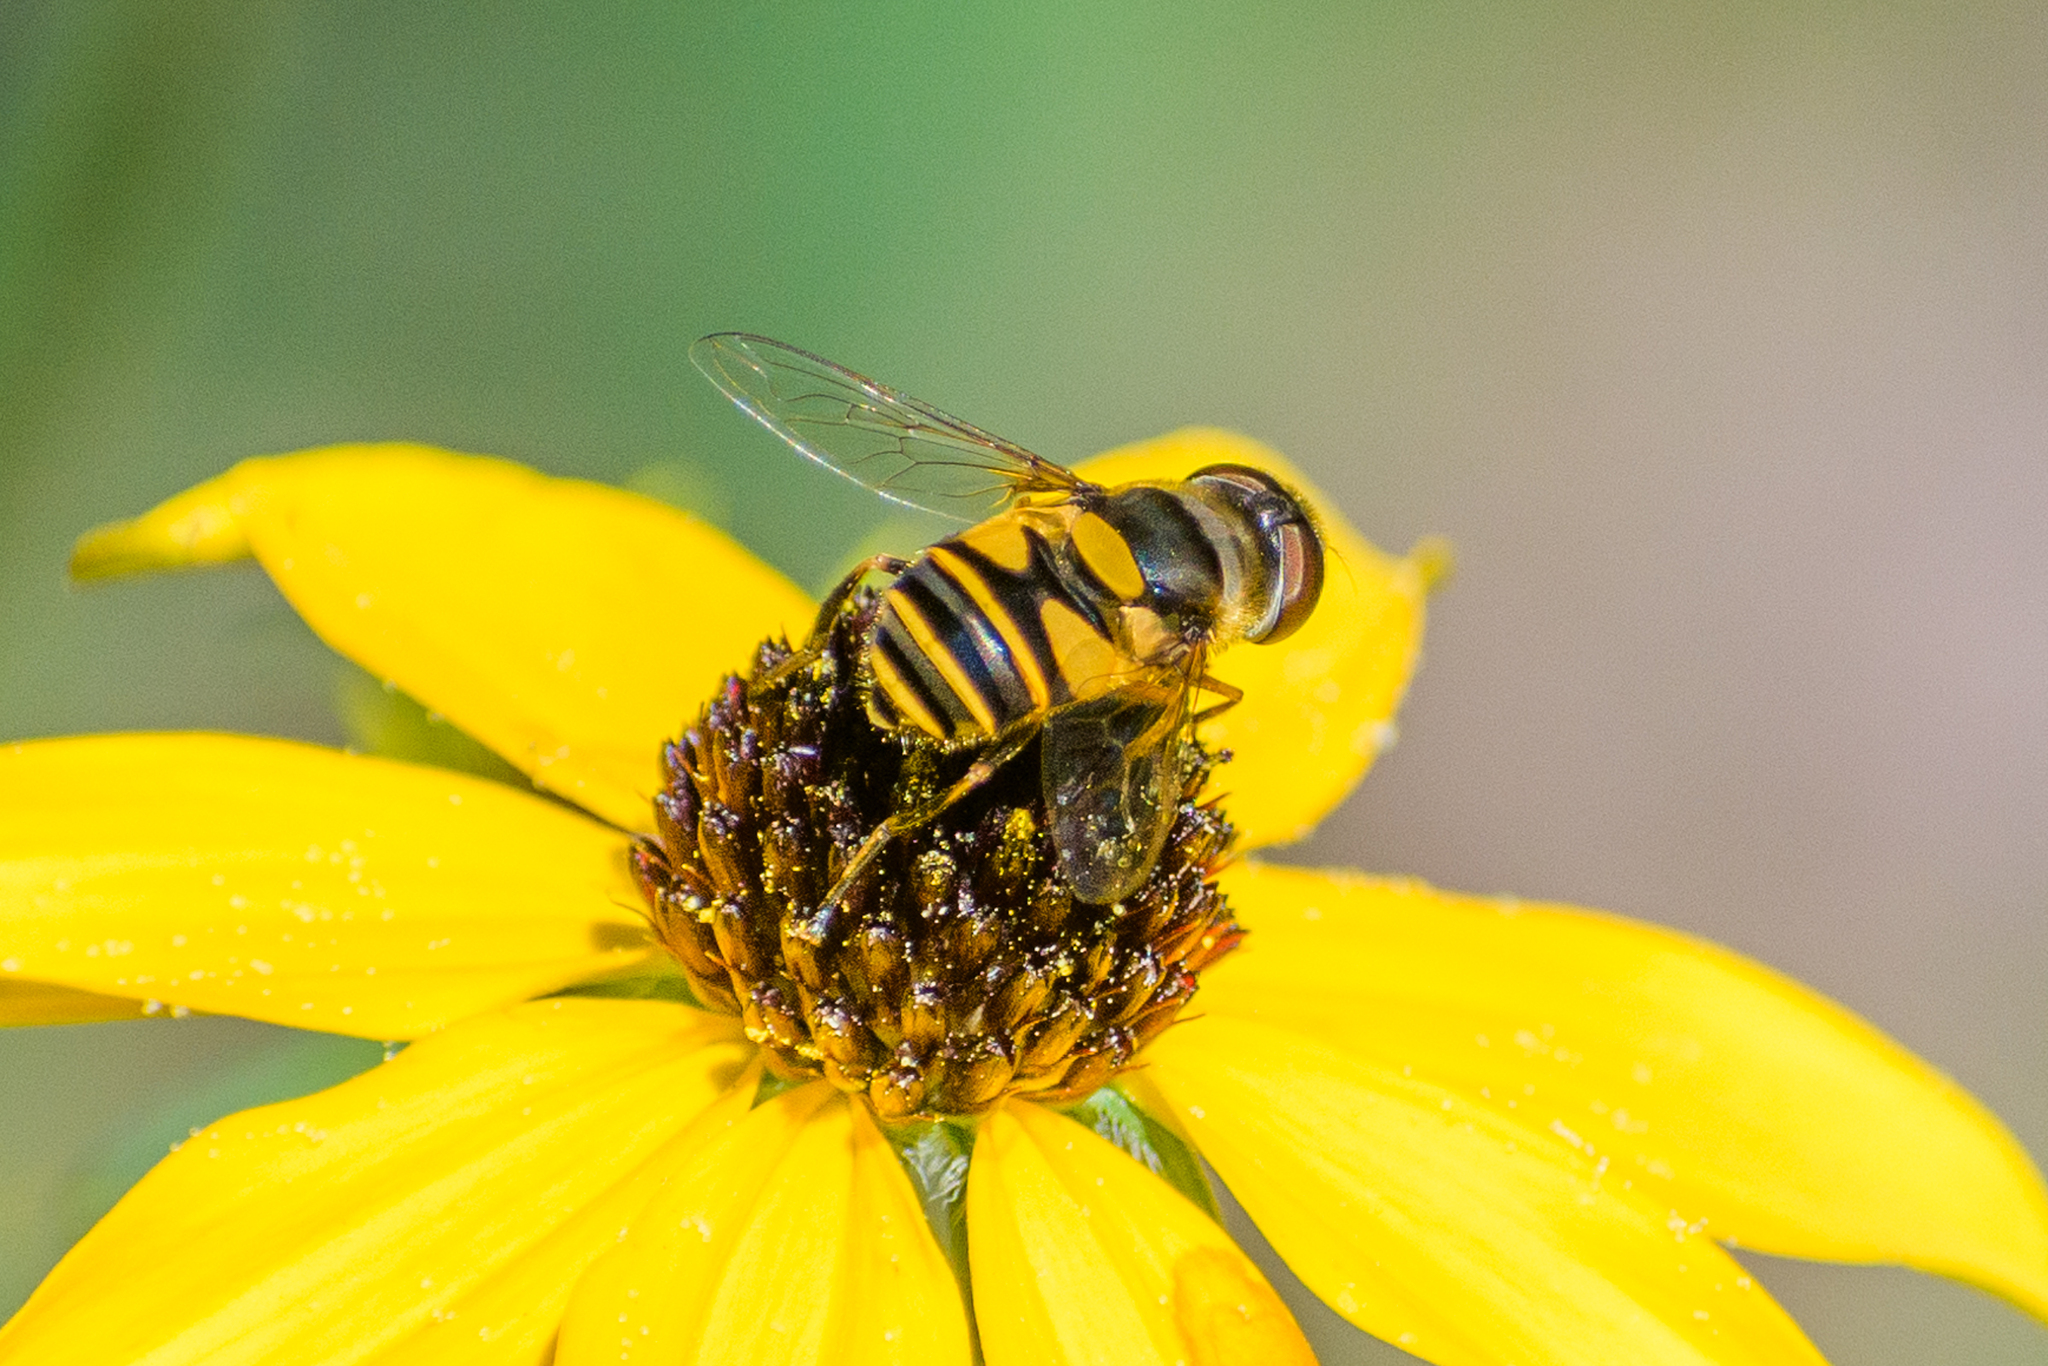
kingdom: Animalia
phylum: Arthropoda
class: Insecta
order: Diptera
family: Syrphidae
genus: Eristalis
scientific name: Eristalis transversa
